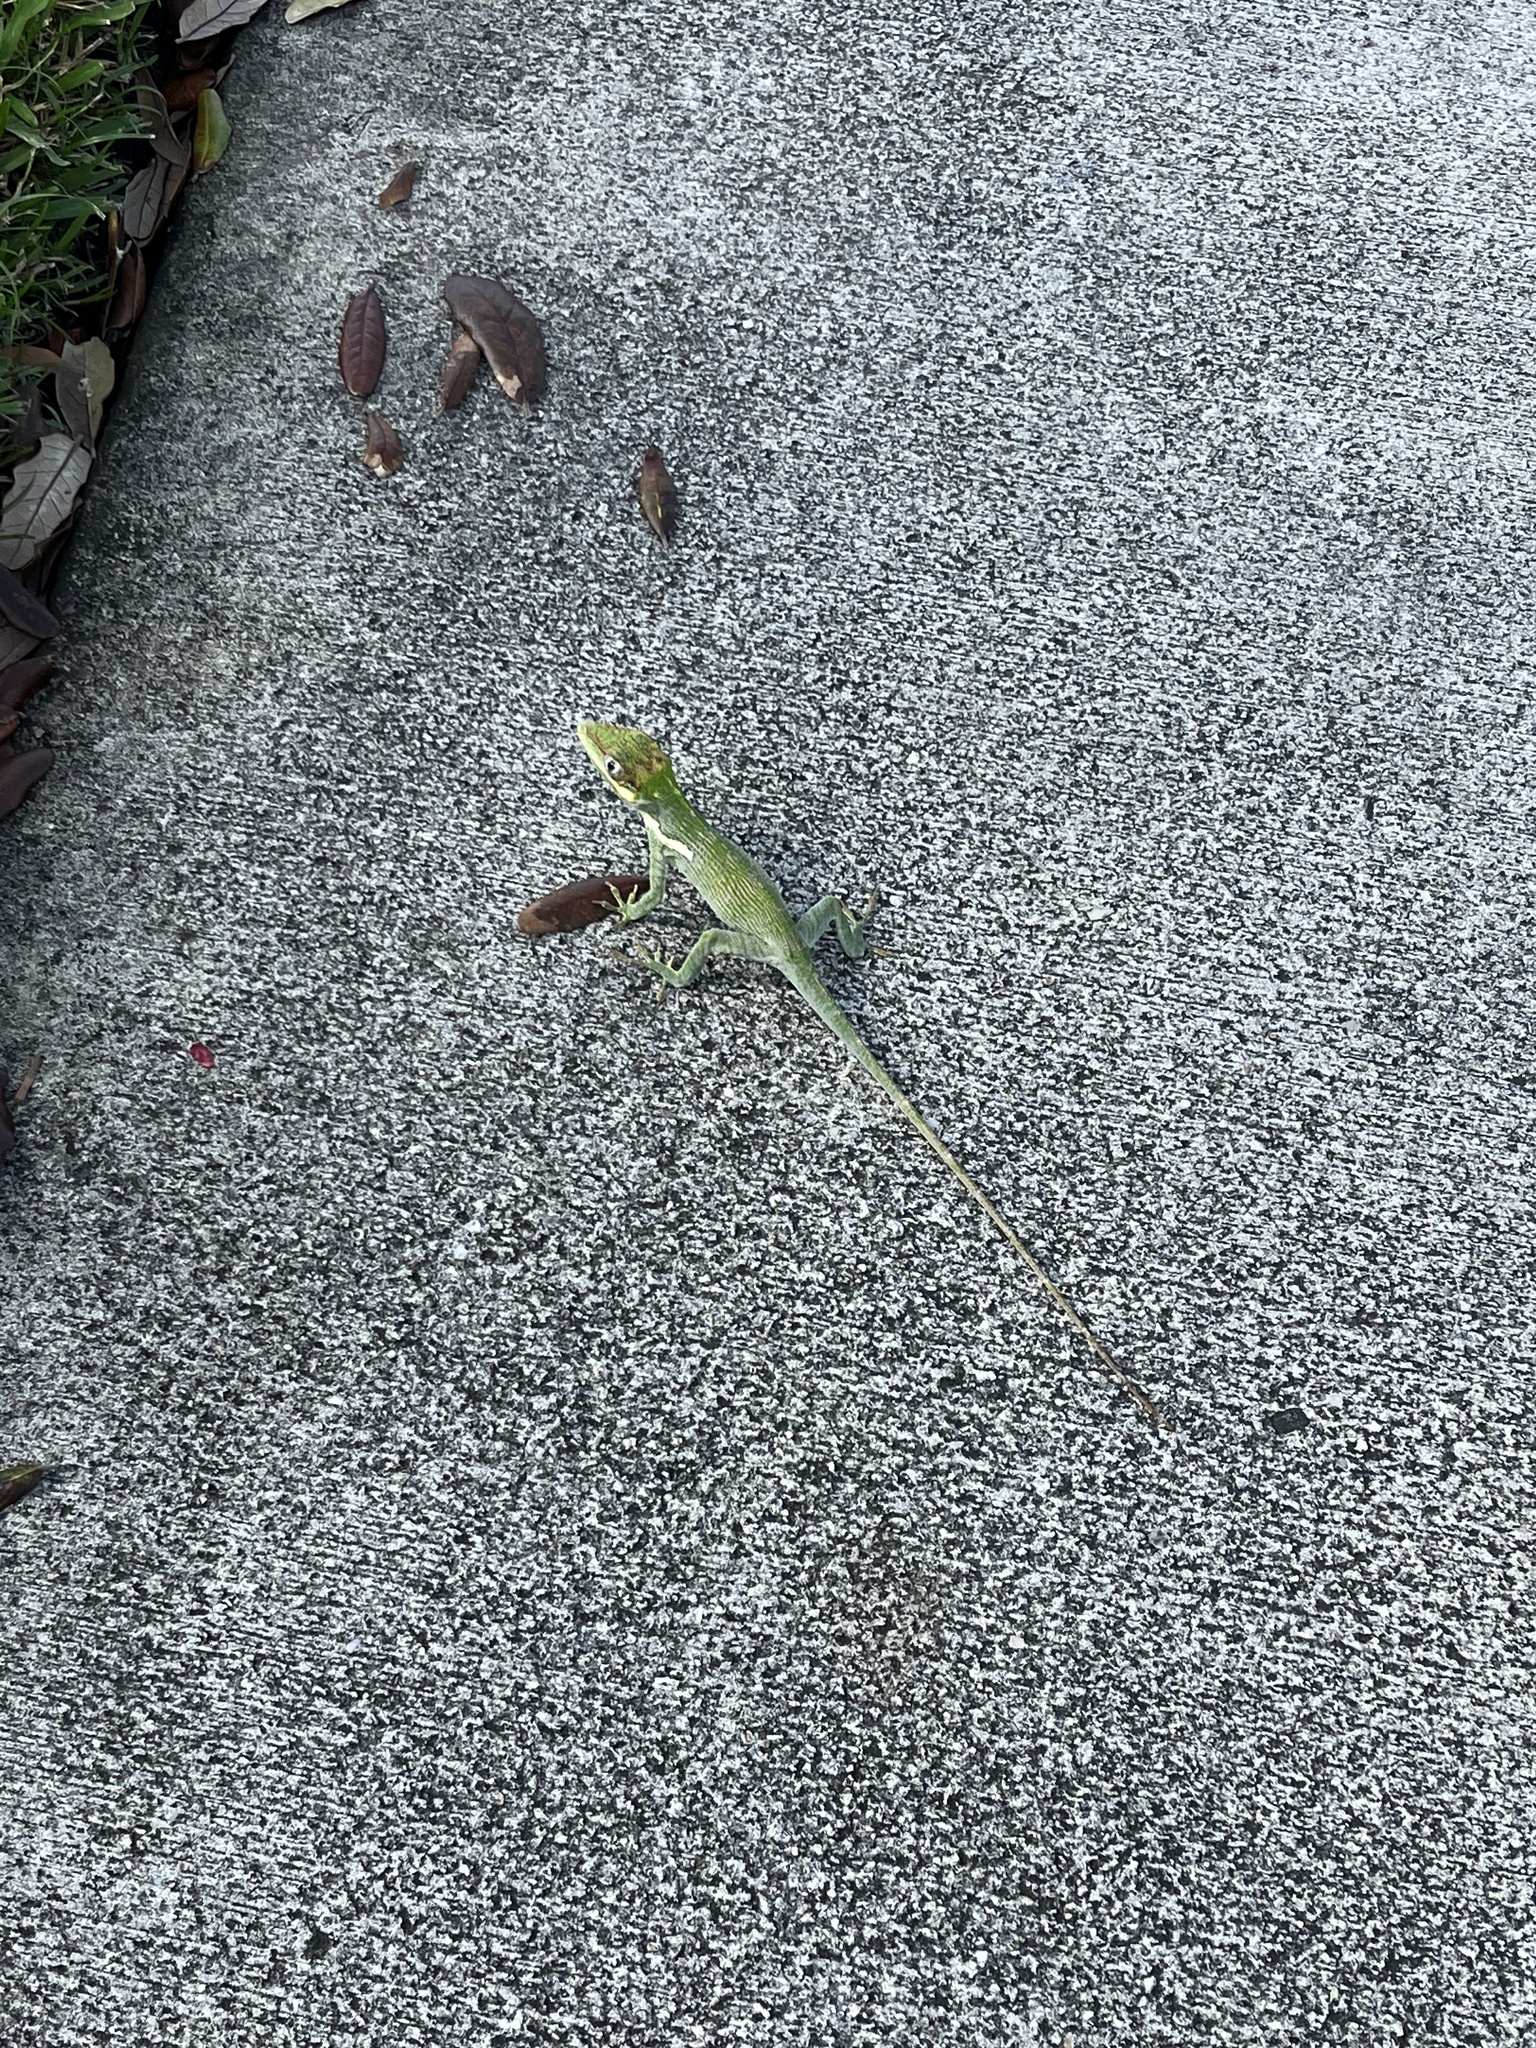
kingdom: Animalia
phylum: Chordata
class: Squamata
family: Dactyloidae
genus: Anolis
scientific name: Anolis equestris
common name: Knight anole
